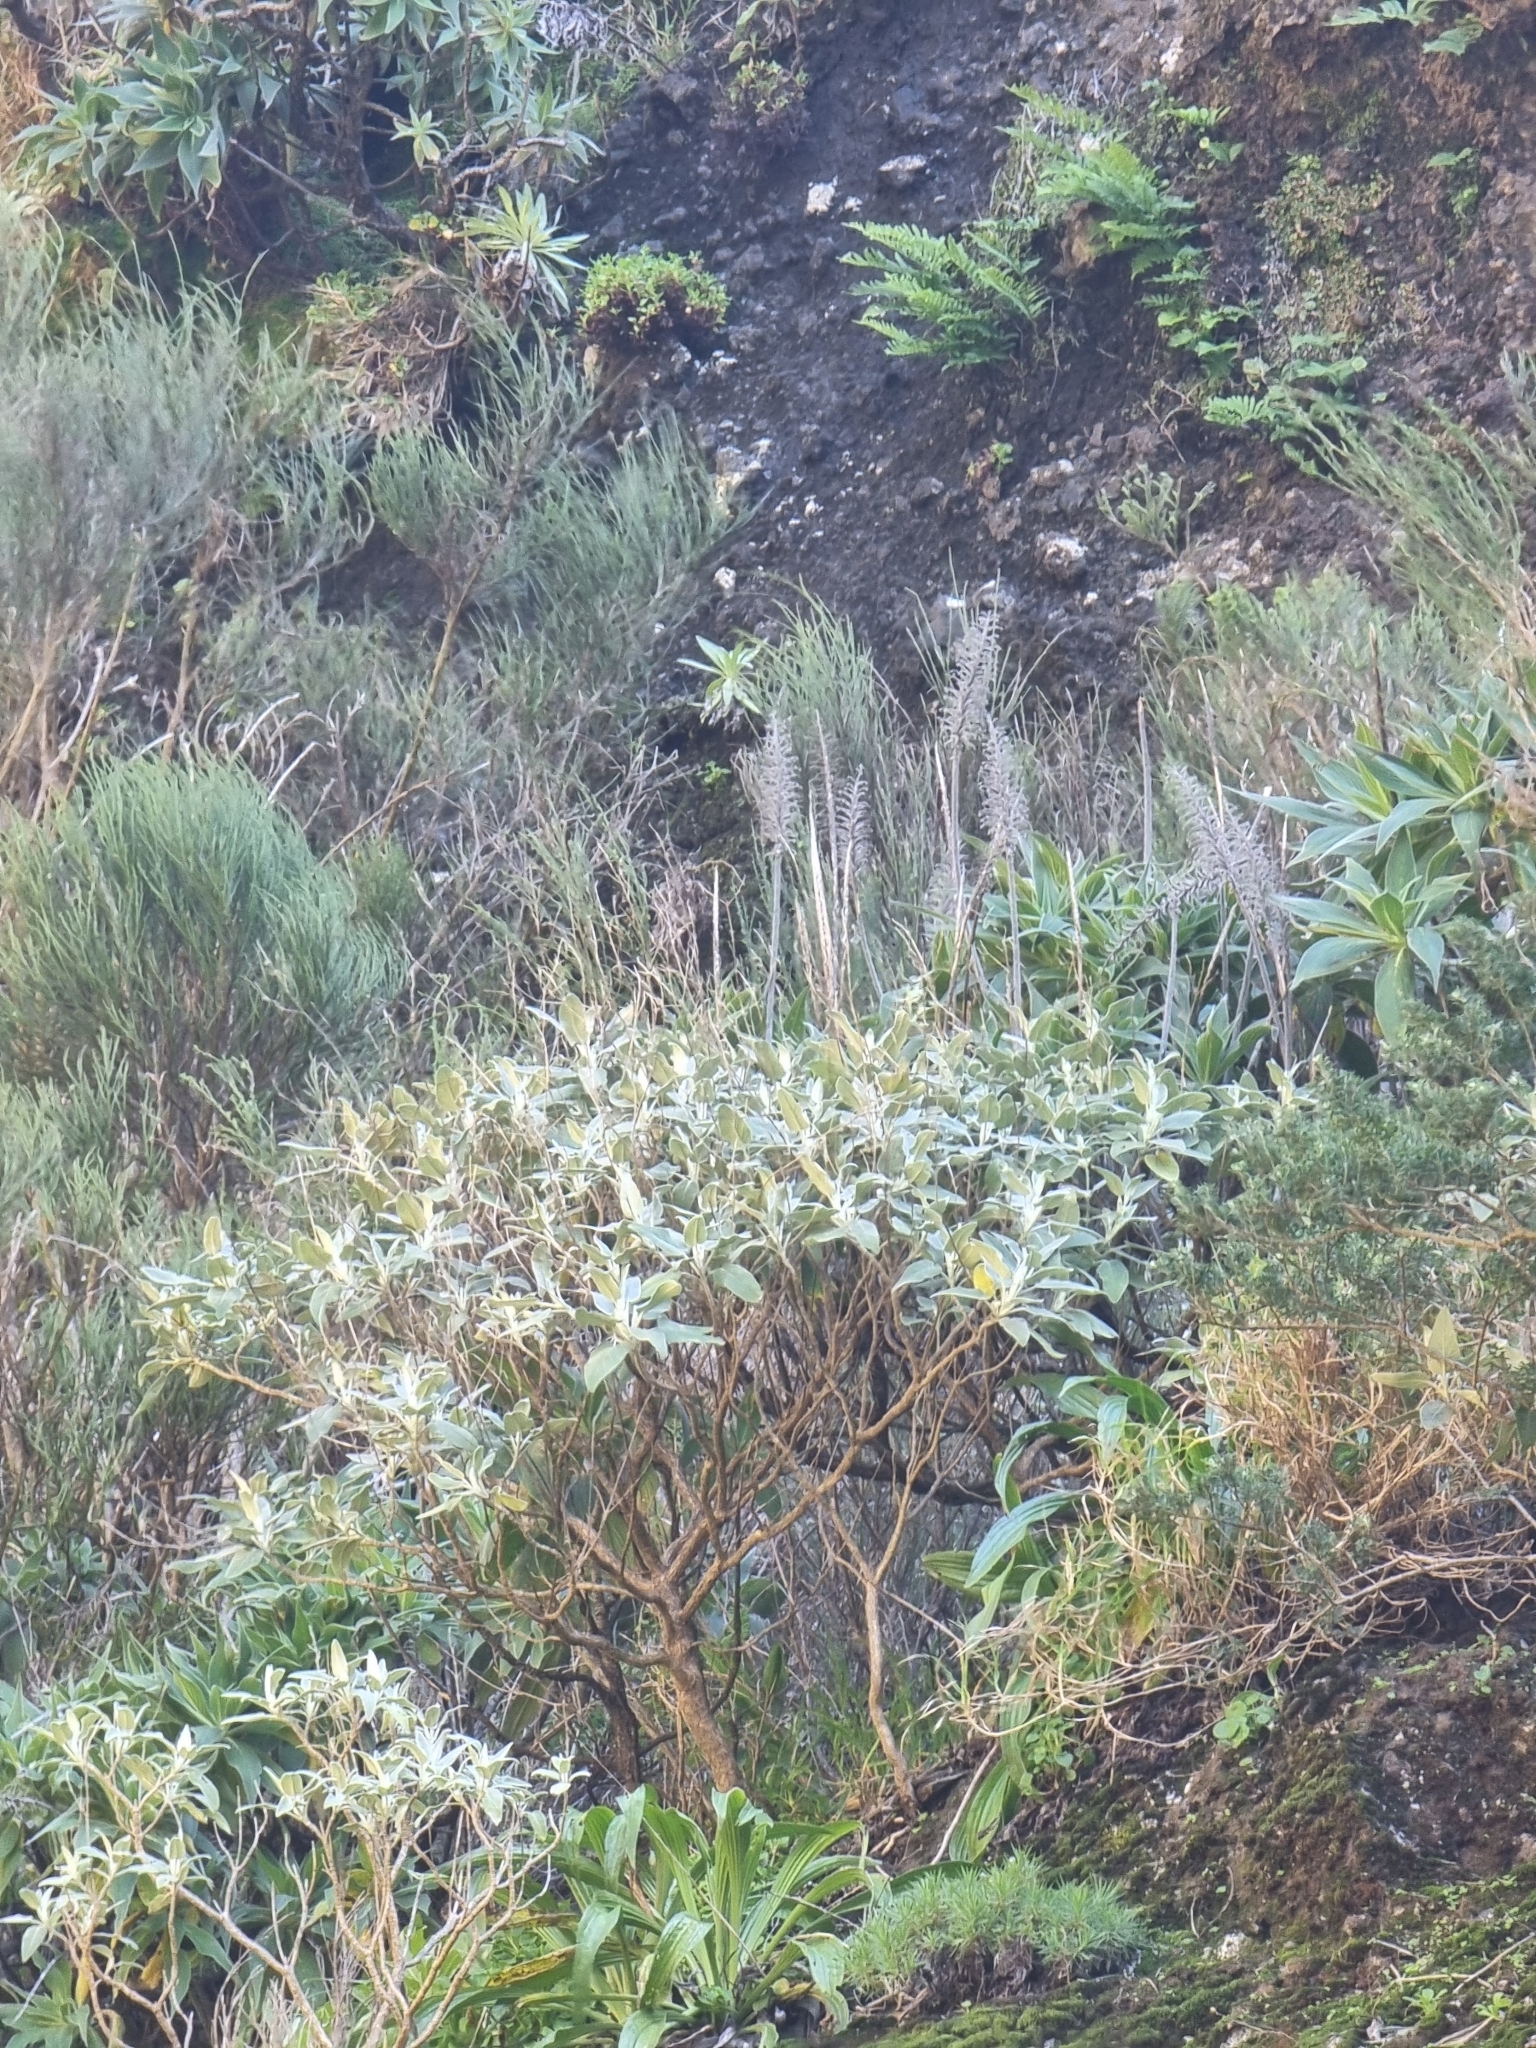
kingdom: Plantae
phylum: Tracheophyta
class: Magnoliopsida
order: Lamiales
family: Lamiaceae
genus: Sideritis
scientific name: Sideritis candicans
